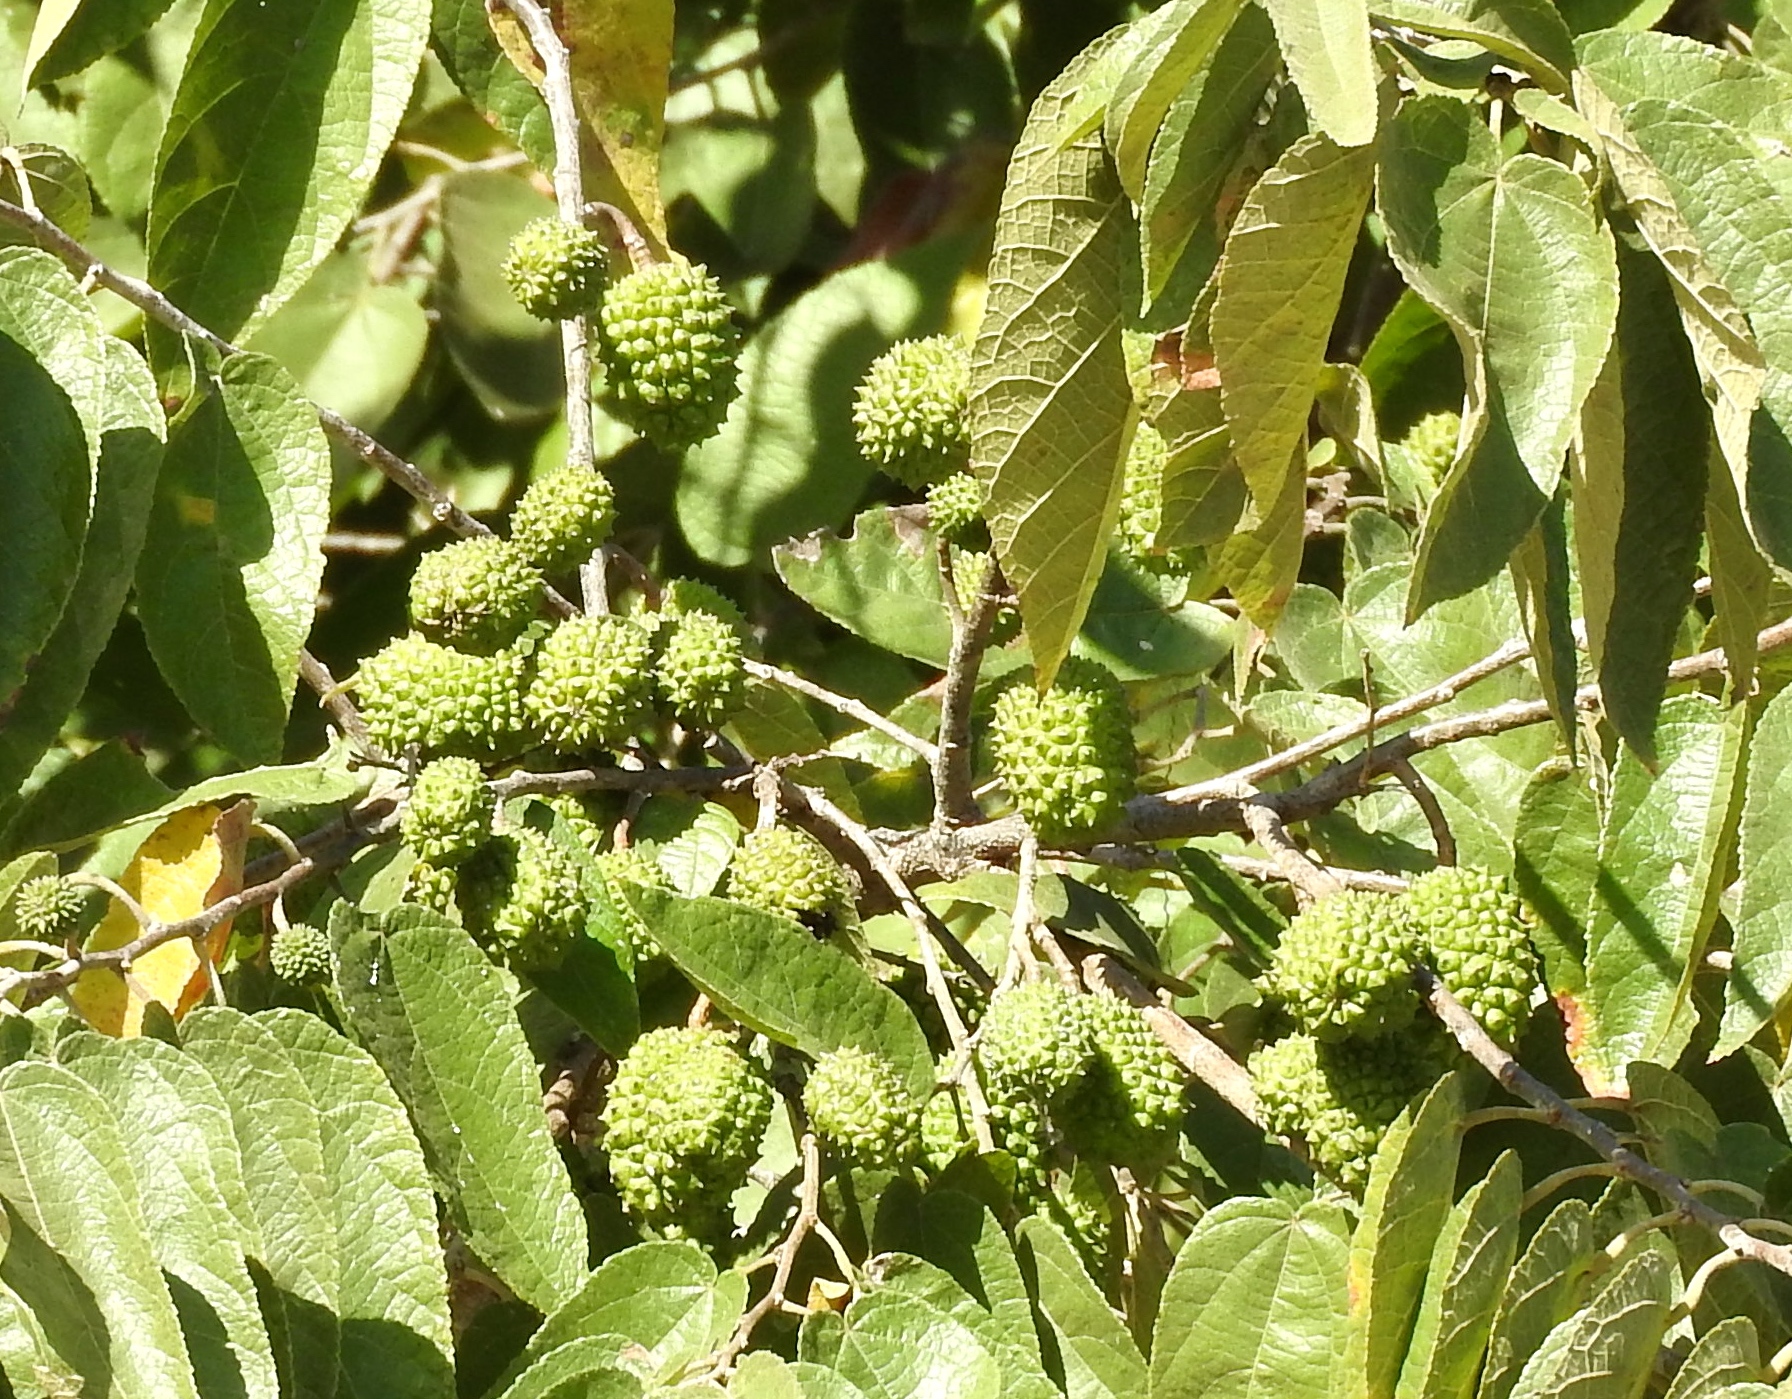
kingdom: Plantae
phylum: Tracheophyta
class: Magnoliopsida
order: Malvales
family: Malvaceae
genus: Guazuma
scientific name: Guazuma ulmifolia
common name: Bastard-cedar
